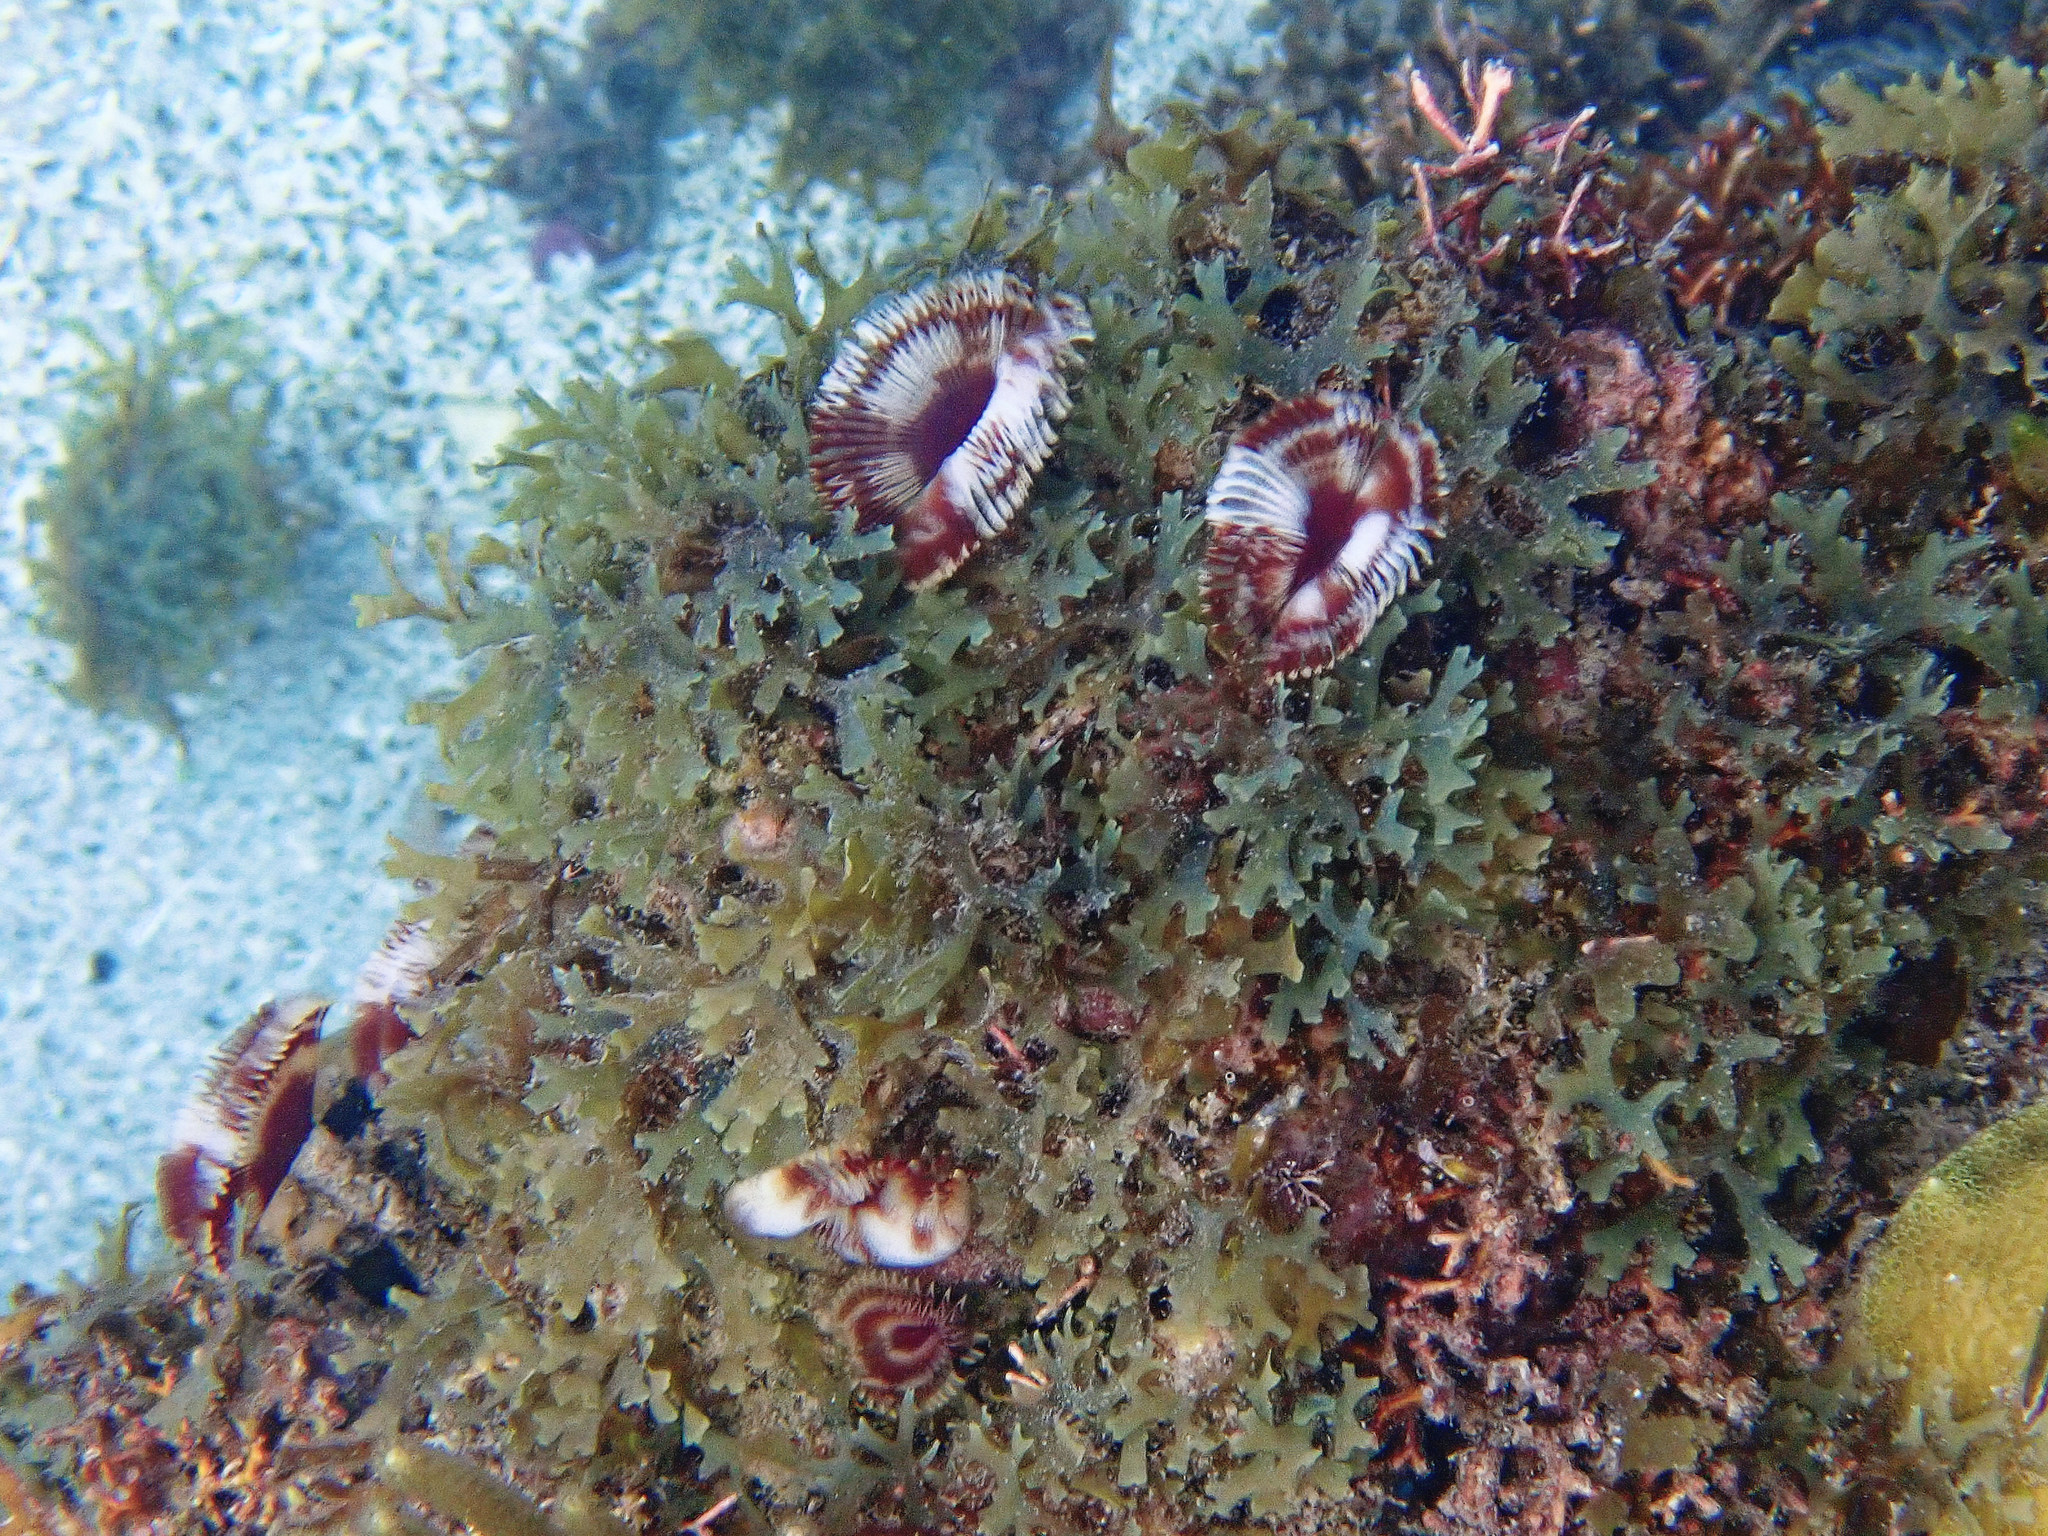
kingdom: Animalia
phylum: Annelida
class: Polychaeta
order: Sabellida
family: Sabellidae
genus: Anamobaea
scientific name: Anamobaea orstedii
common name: Split-crown feather duster
